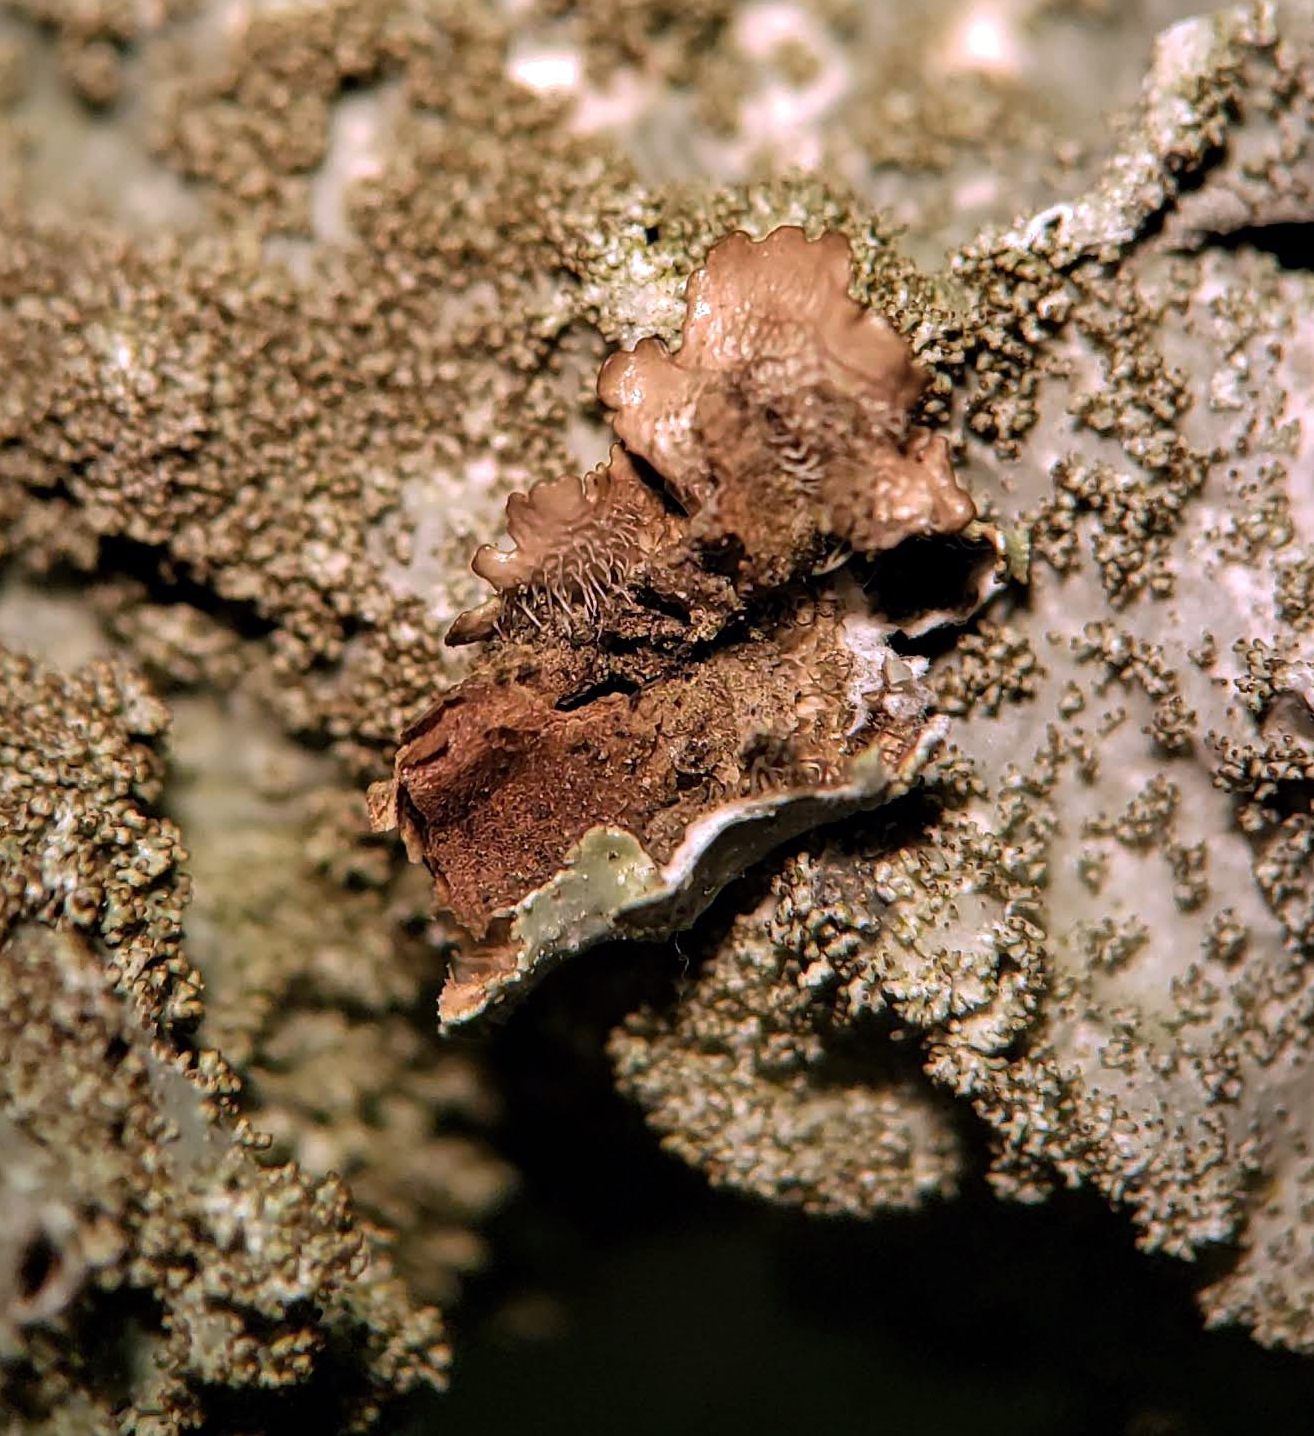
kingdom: Fungi
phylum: Ascomycota
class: Lecanoromycetes
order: Lecanorales
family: Parmeliaceae
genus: Punctelia
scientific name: Punctelia rudecta
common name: Rough speckled shield lichen
